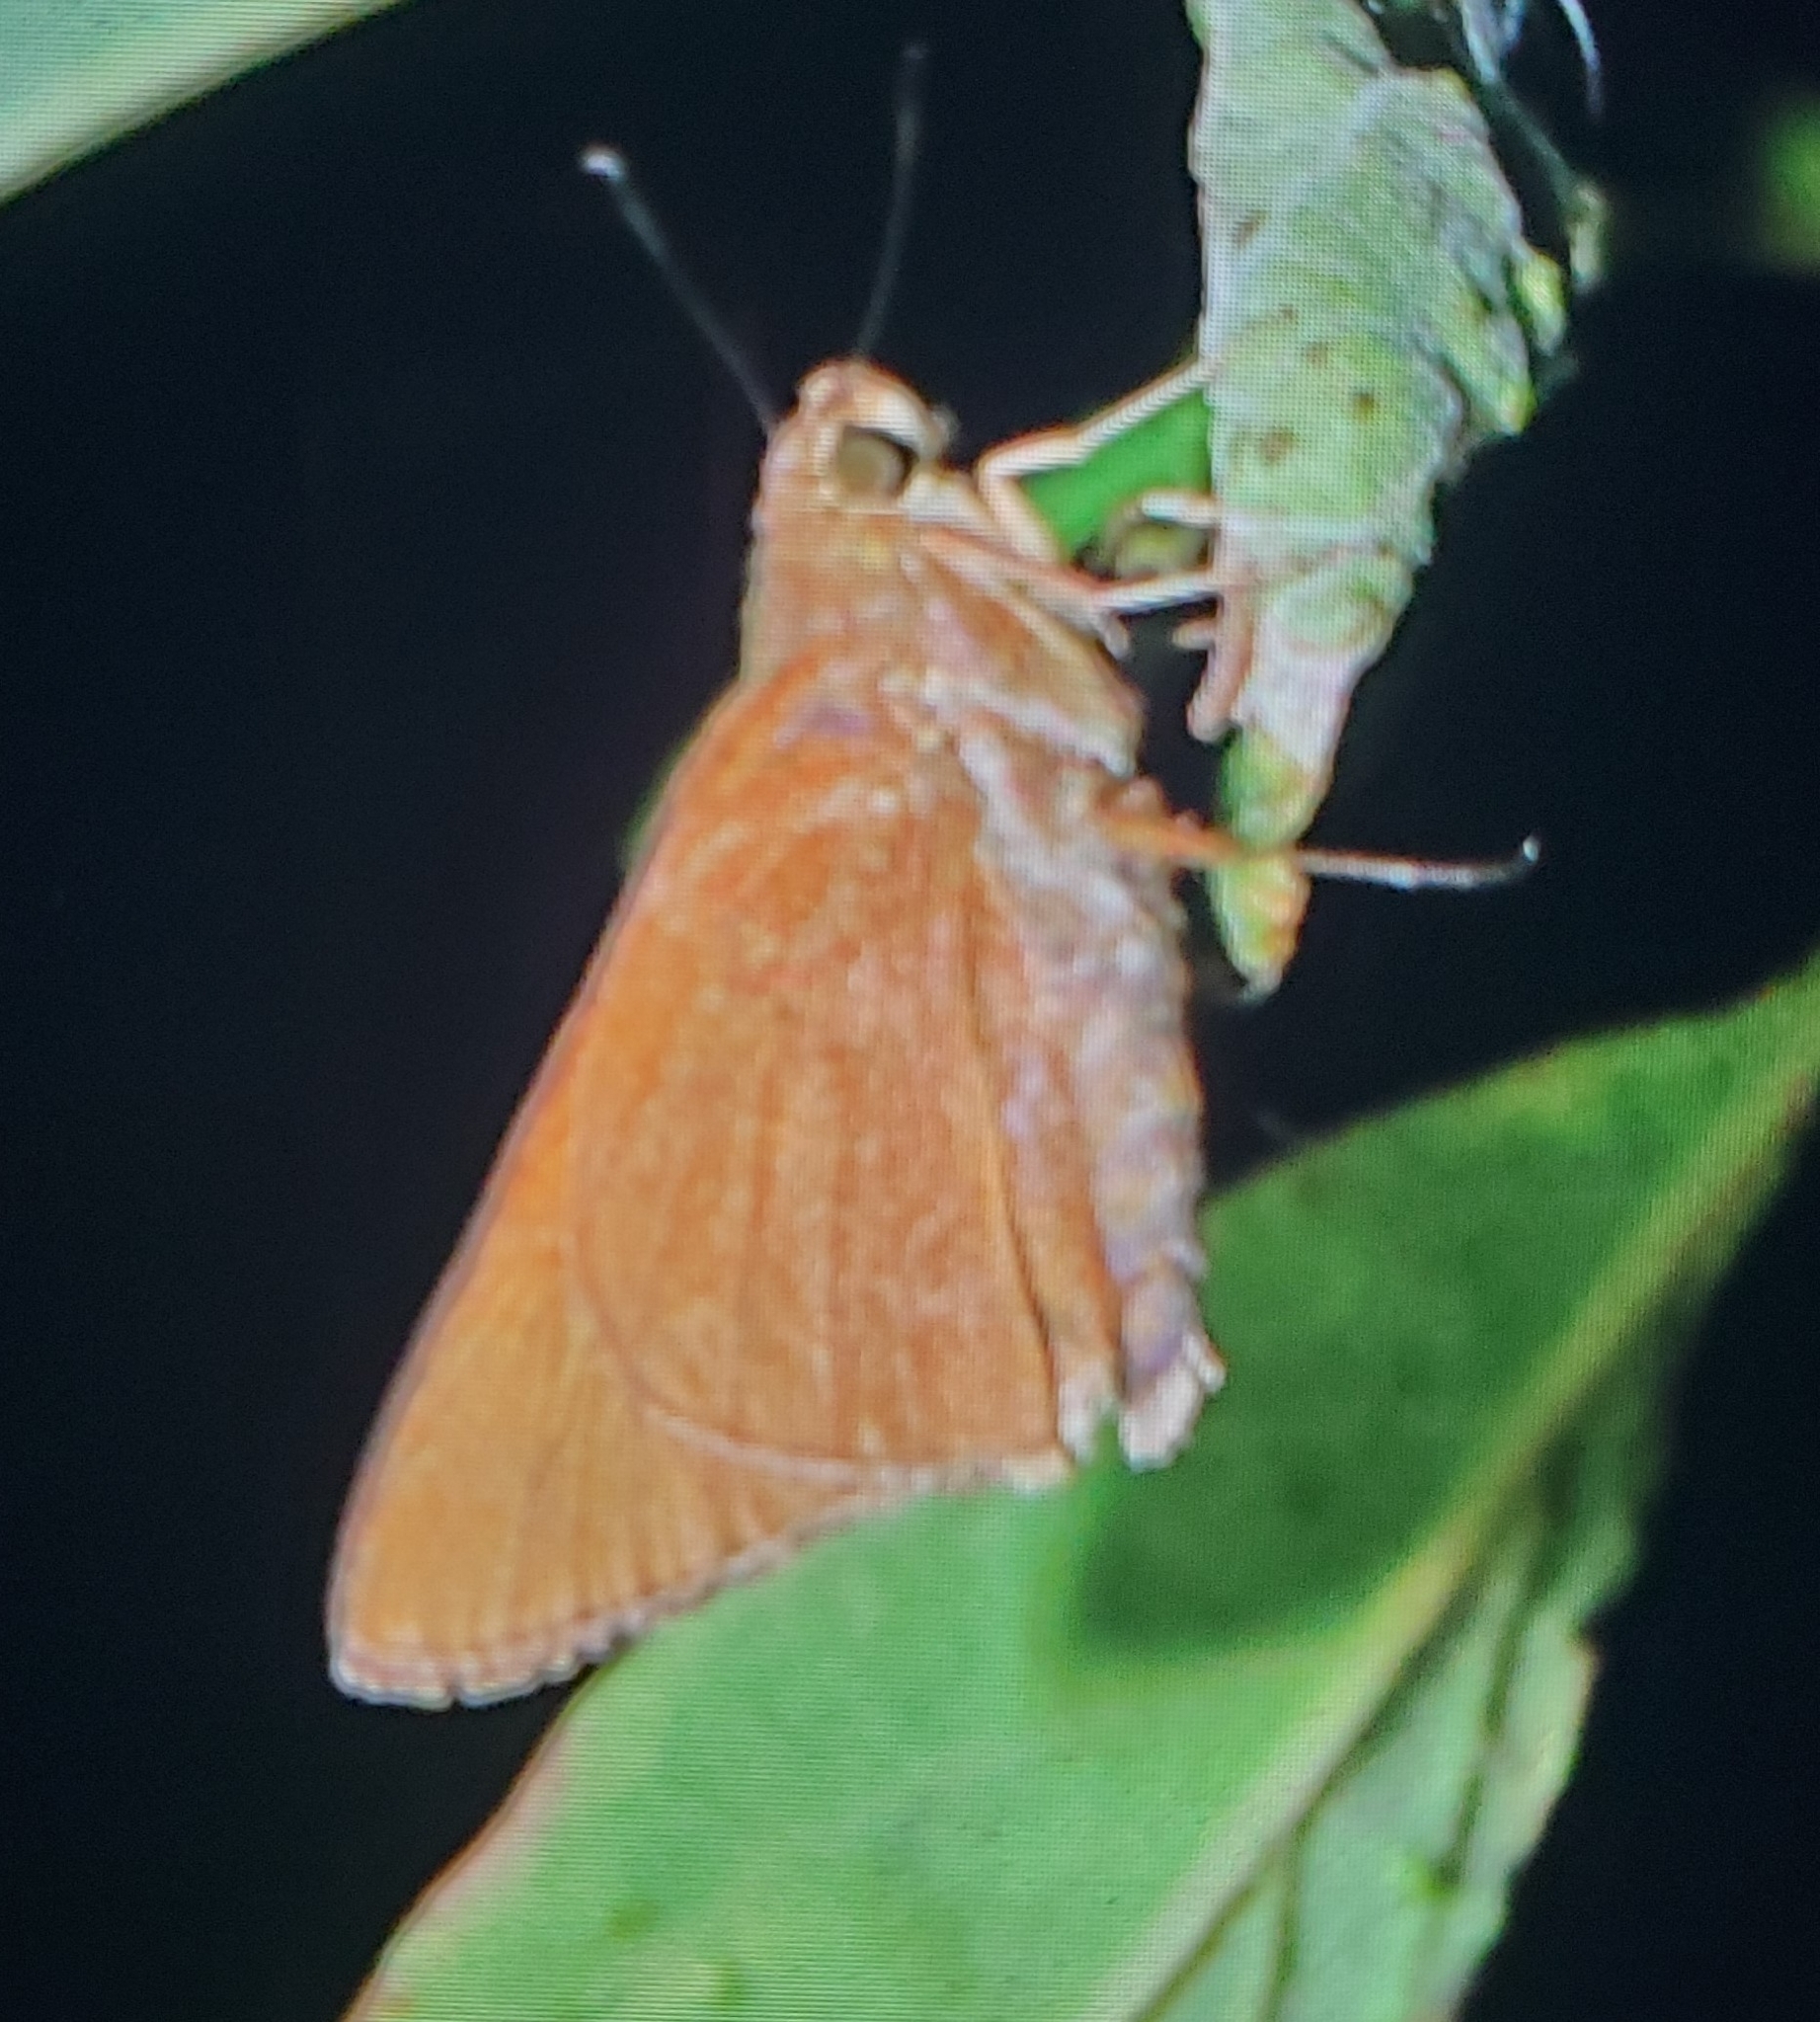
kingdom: Animalia
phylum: Arthropoda
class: Insecta
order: Lepidoptera
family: Hesperiidae
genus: Asbolis
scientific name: Asbolis capucinus
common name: Monk skipper
